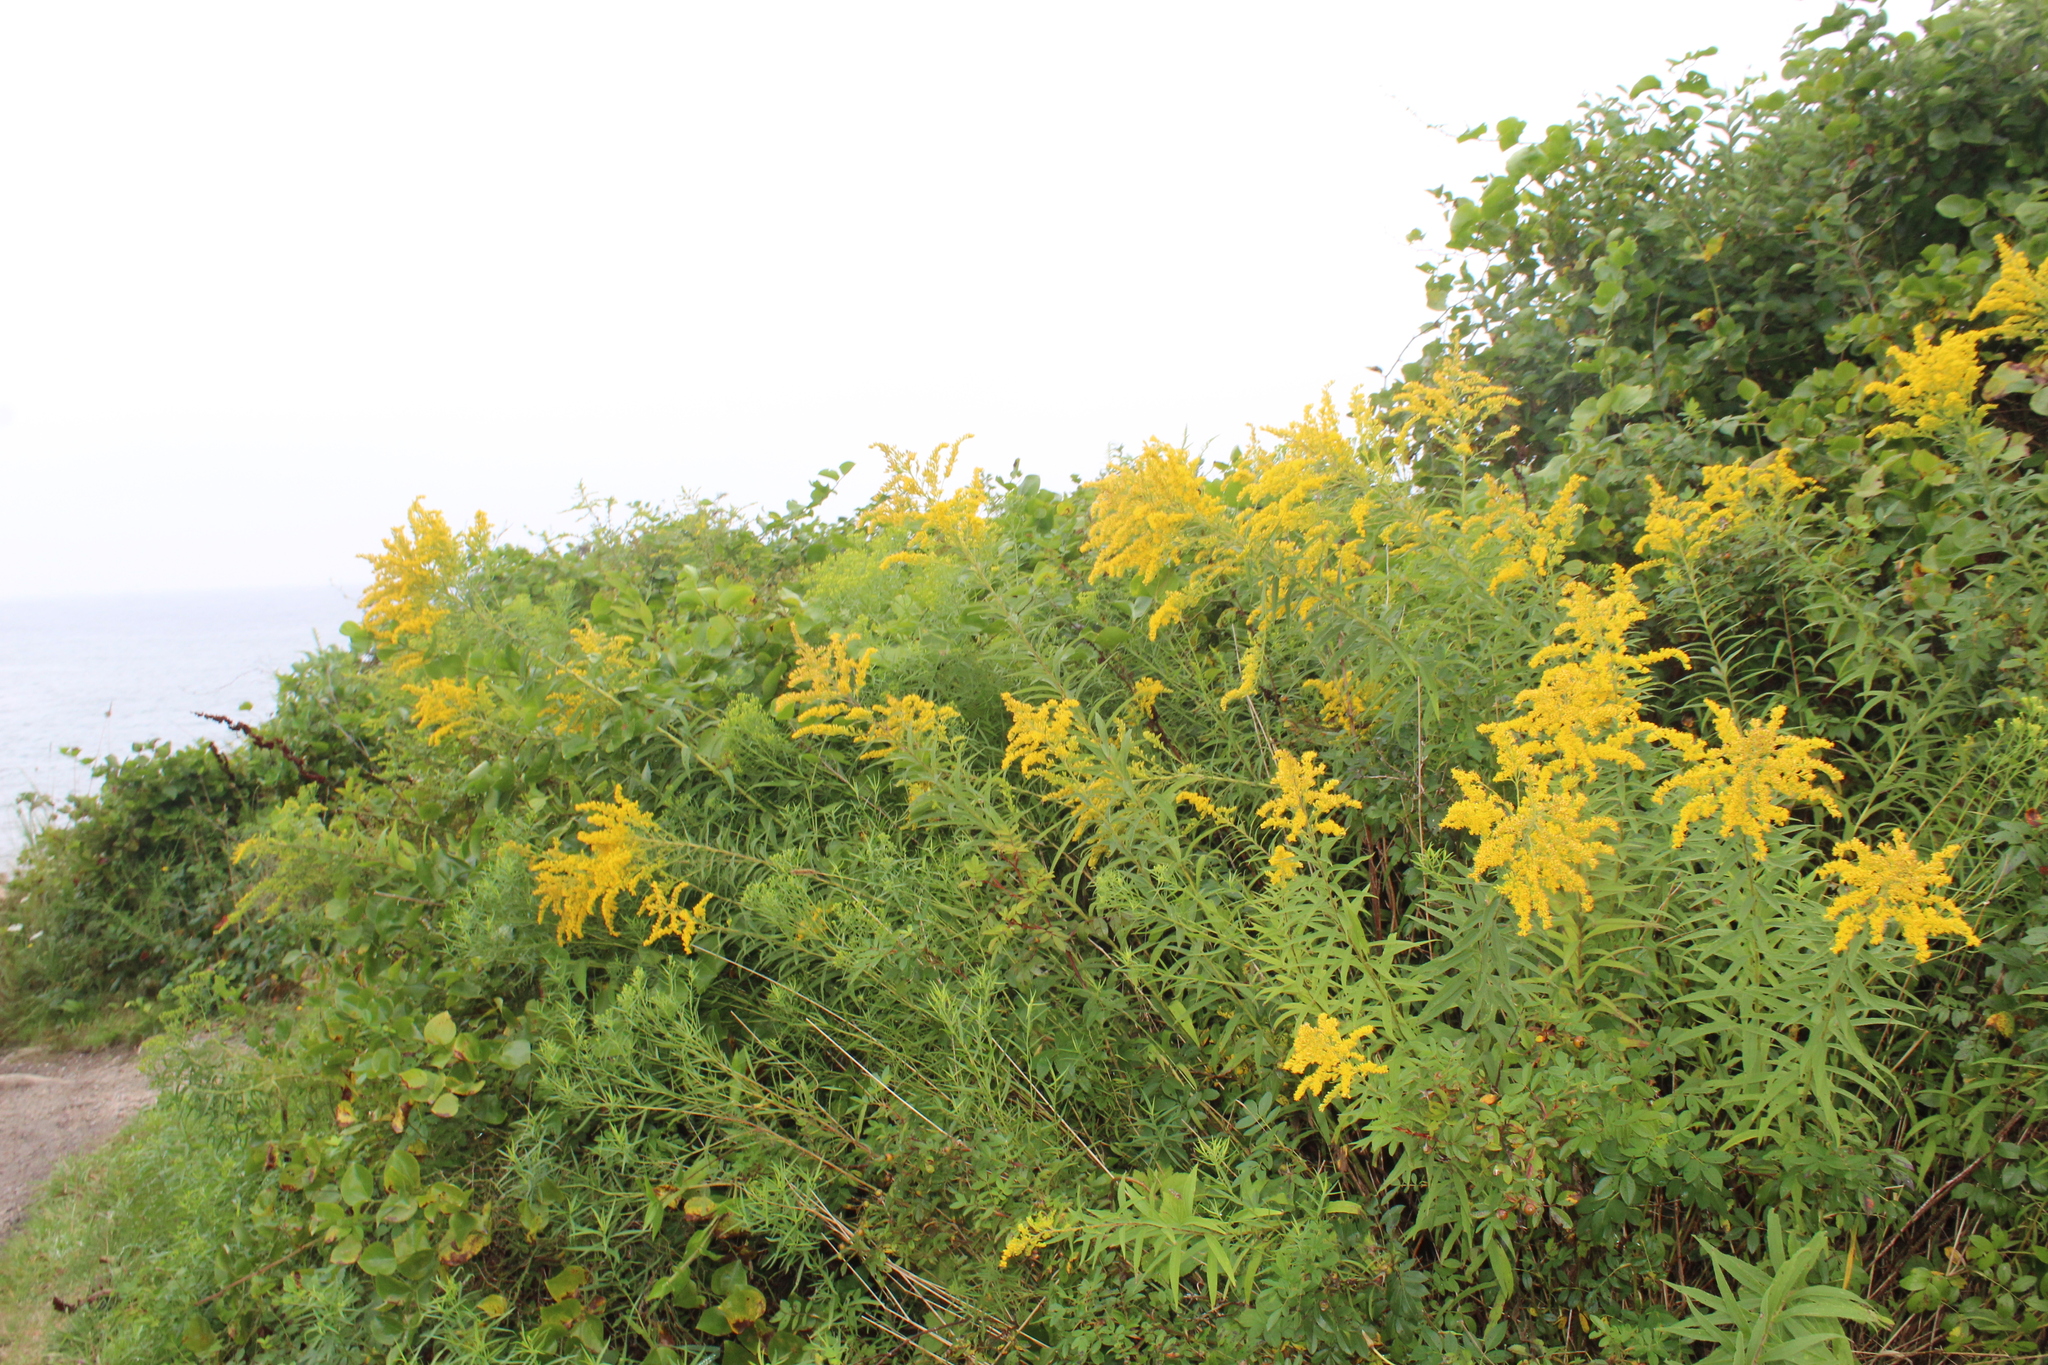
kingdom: Plantae
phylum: Tracheophyta
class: Magnoliopsida
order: Asterales
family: Asteraceae
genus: Solidago
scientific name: Solidago canadensis
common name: Canada goldenrod
